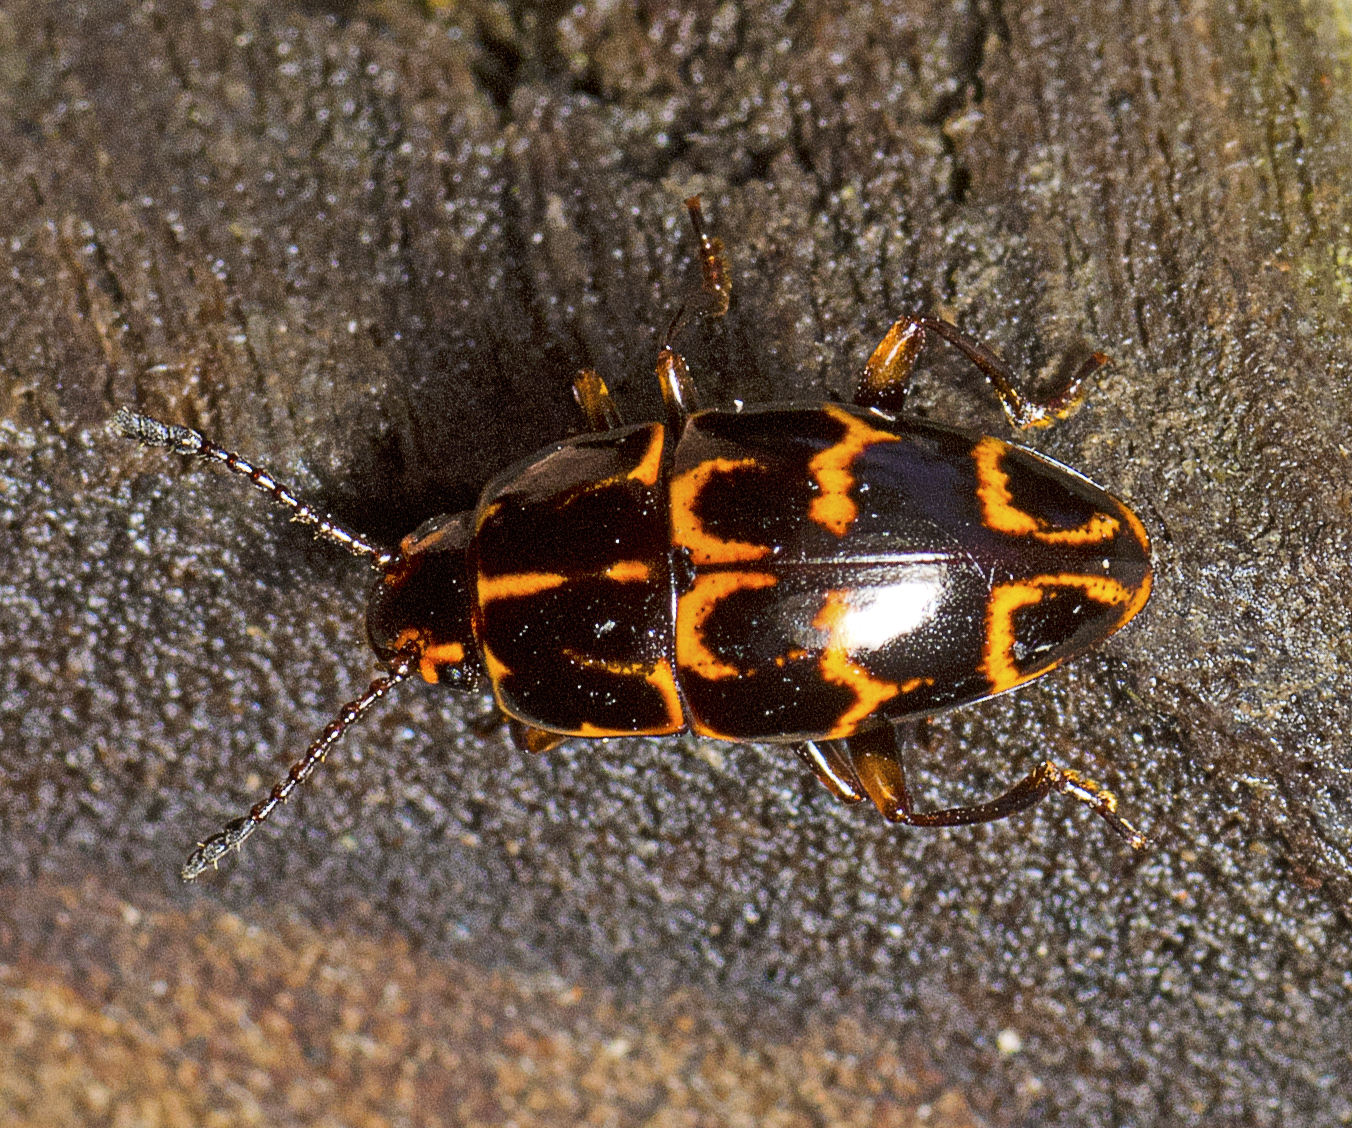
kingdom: Animalia
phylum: Arthropoda
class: Insecta
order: Coleoptera
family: Erotylidae
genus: Episcaphula
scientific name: Episcaphula tamburinea
